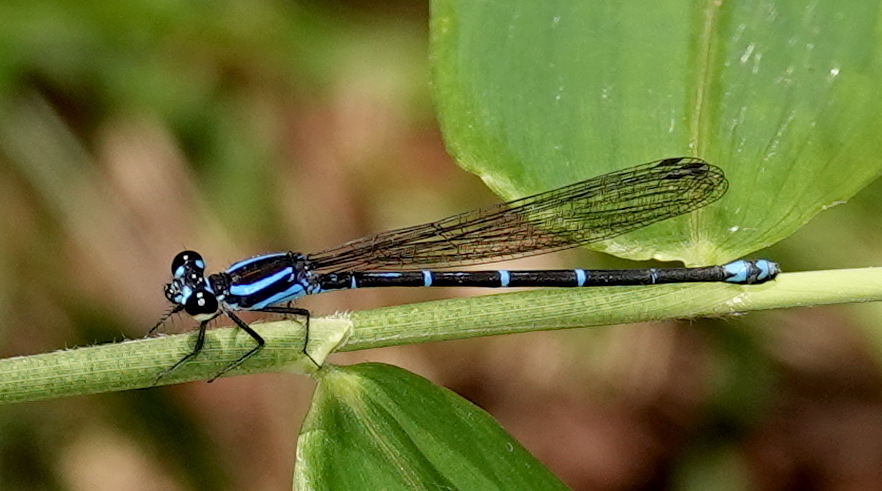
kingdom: Animalia
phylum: Arthropoda
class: Insecta
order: Odonata
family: Coenagrionidae
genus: Argia
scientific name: Argia oculata
